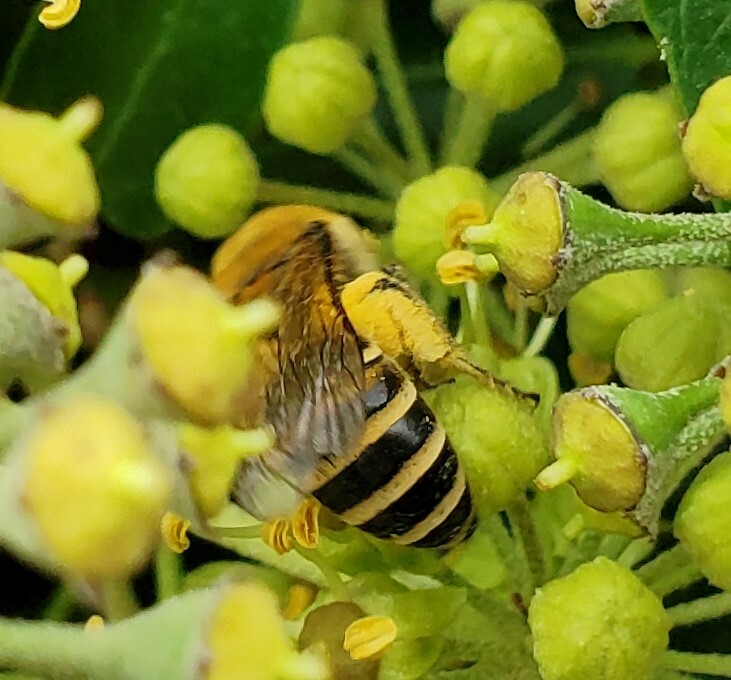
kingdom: Animalia
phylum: Arthropoda
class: Insecta
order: Hymenoptera
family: Colletidae
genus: Colletes
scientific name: Colletes hederae
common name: Ivy bee
